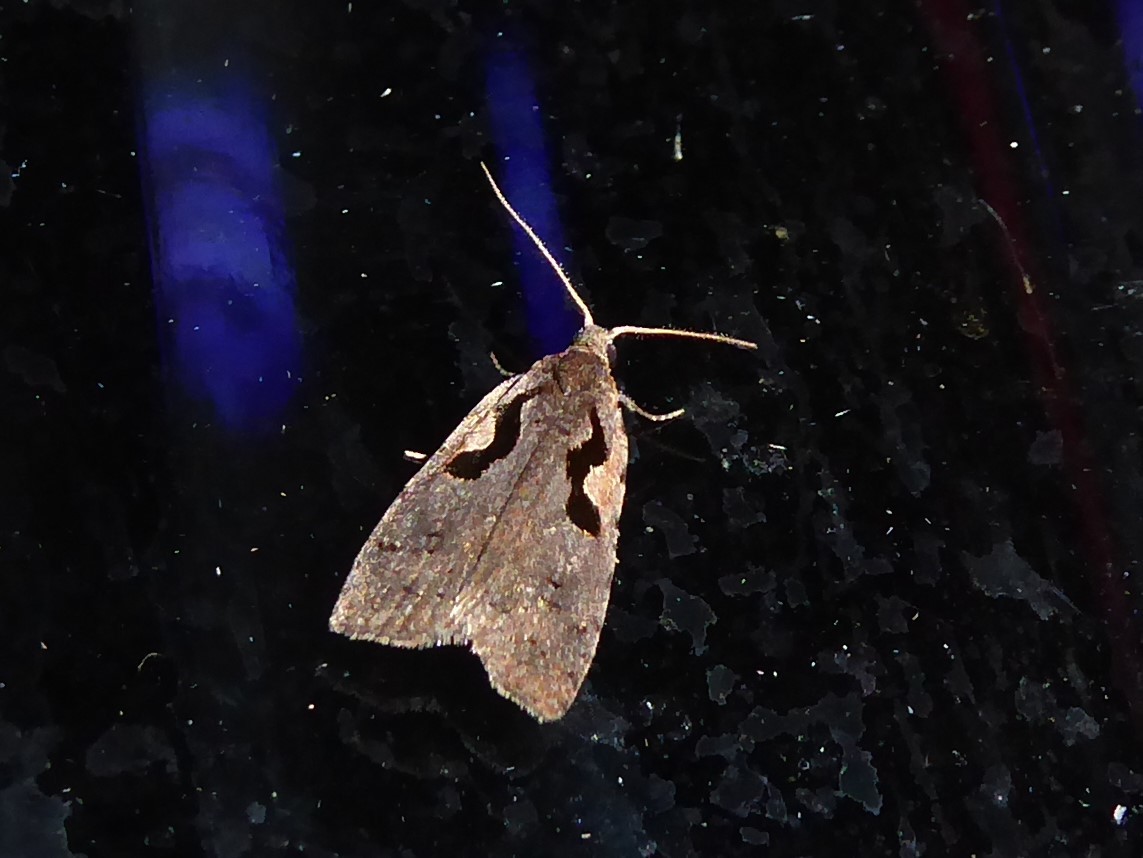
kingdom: Animalia
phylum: Arthropoda
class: Insecta
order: Lepidoptera
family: Tortricidae
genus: Cnephasia
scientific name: Cnephasia jactatana
